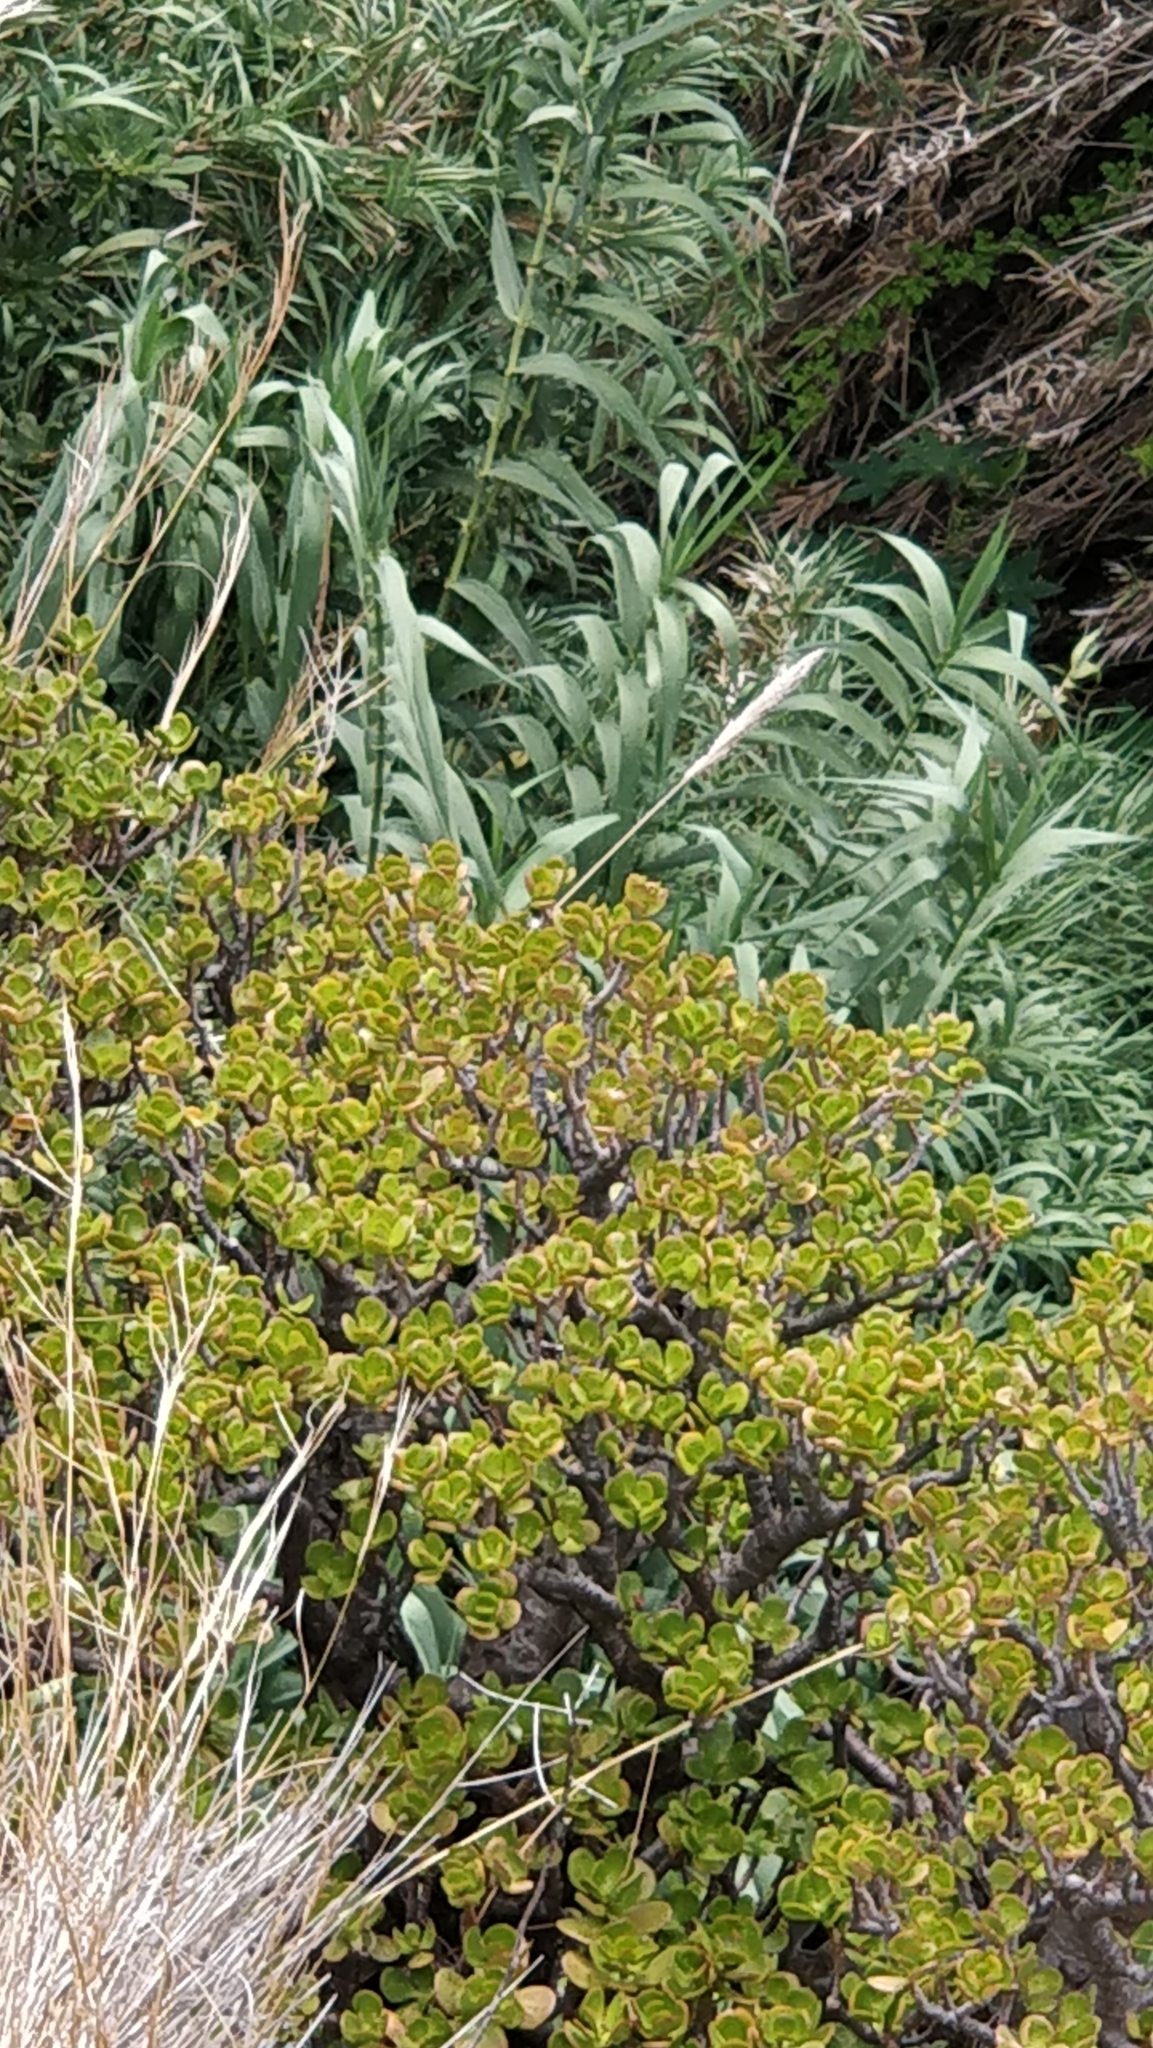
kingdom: Plantae
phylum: Tracheophyta
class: Magnoliopsida
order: Saxifragales
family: Crassulaceae
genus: Crassula
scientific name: Crassula ovata
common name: Jade plant
